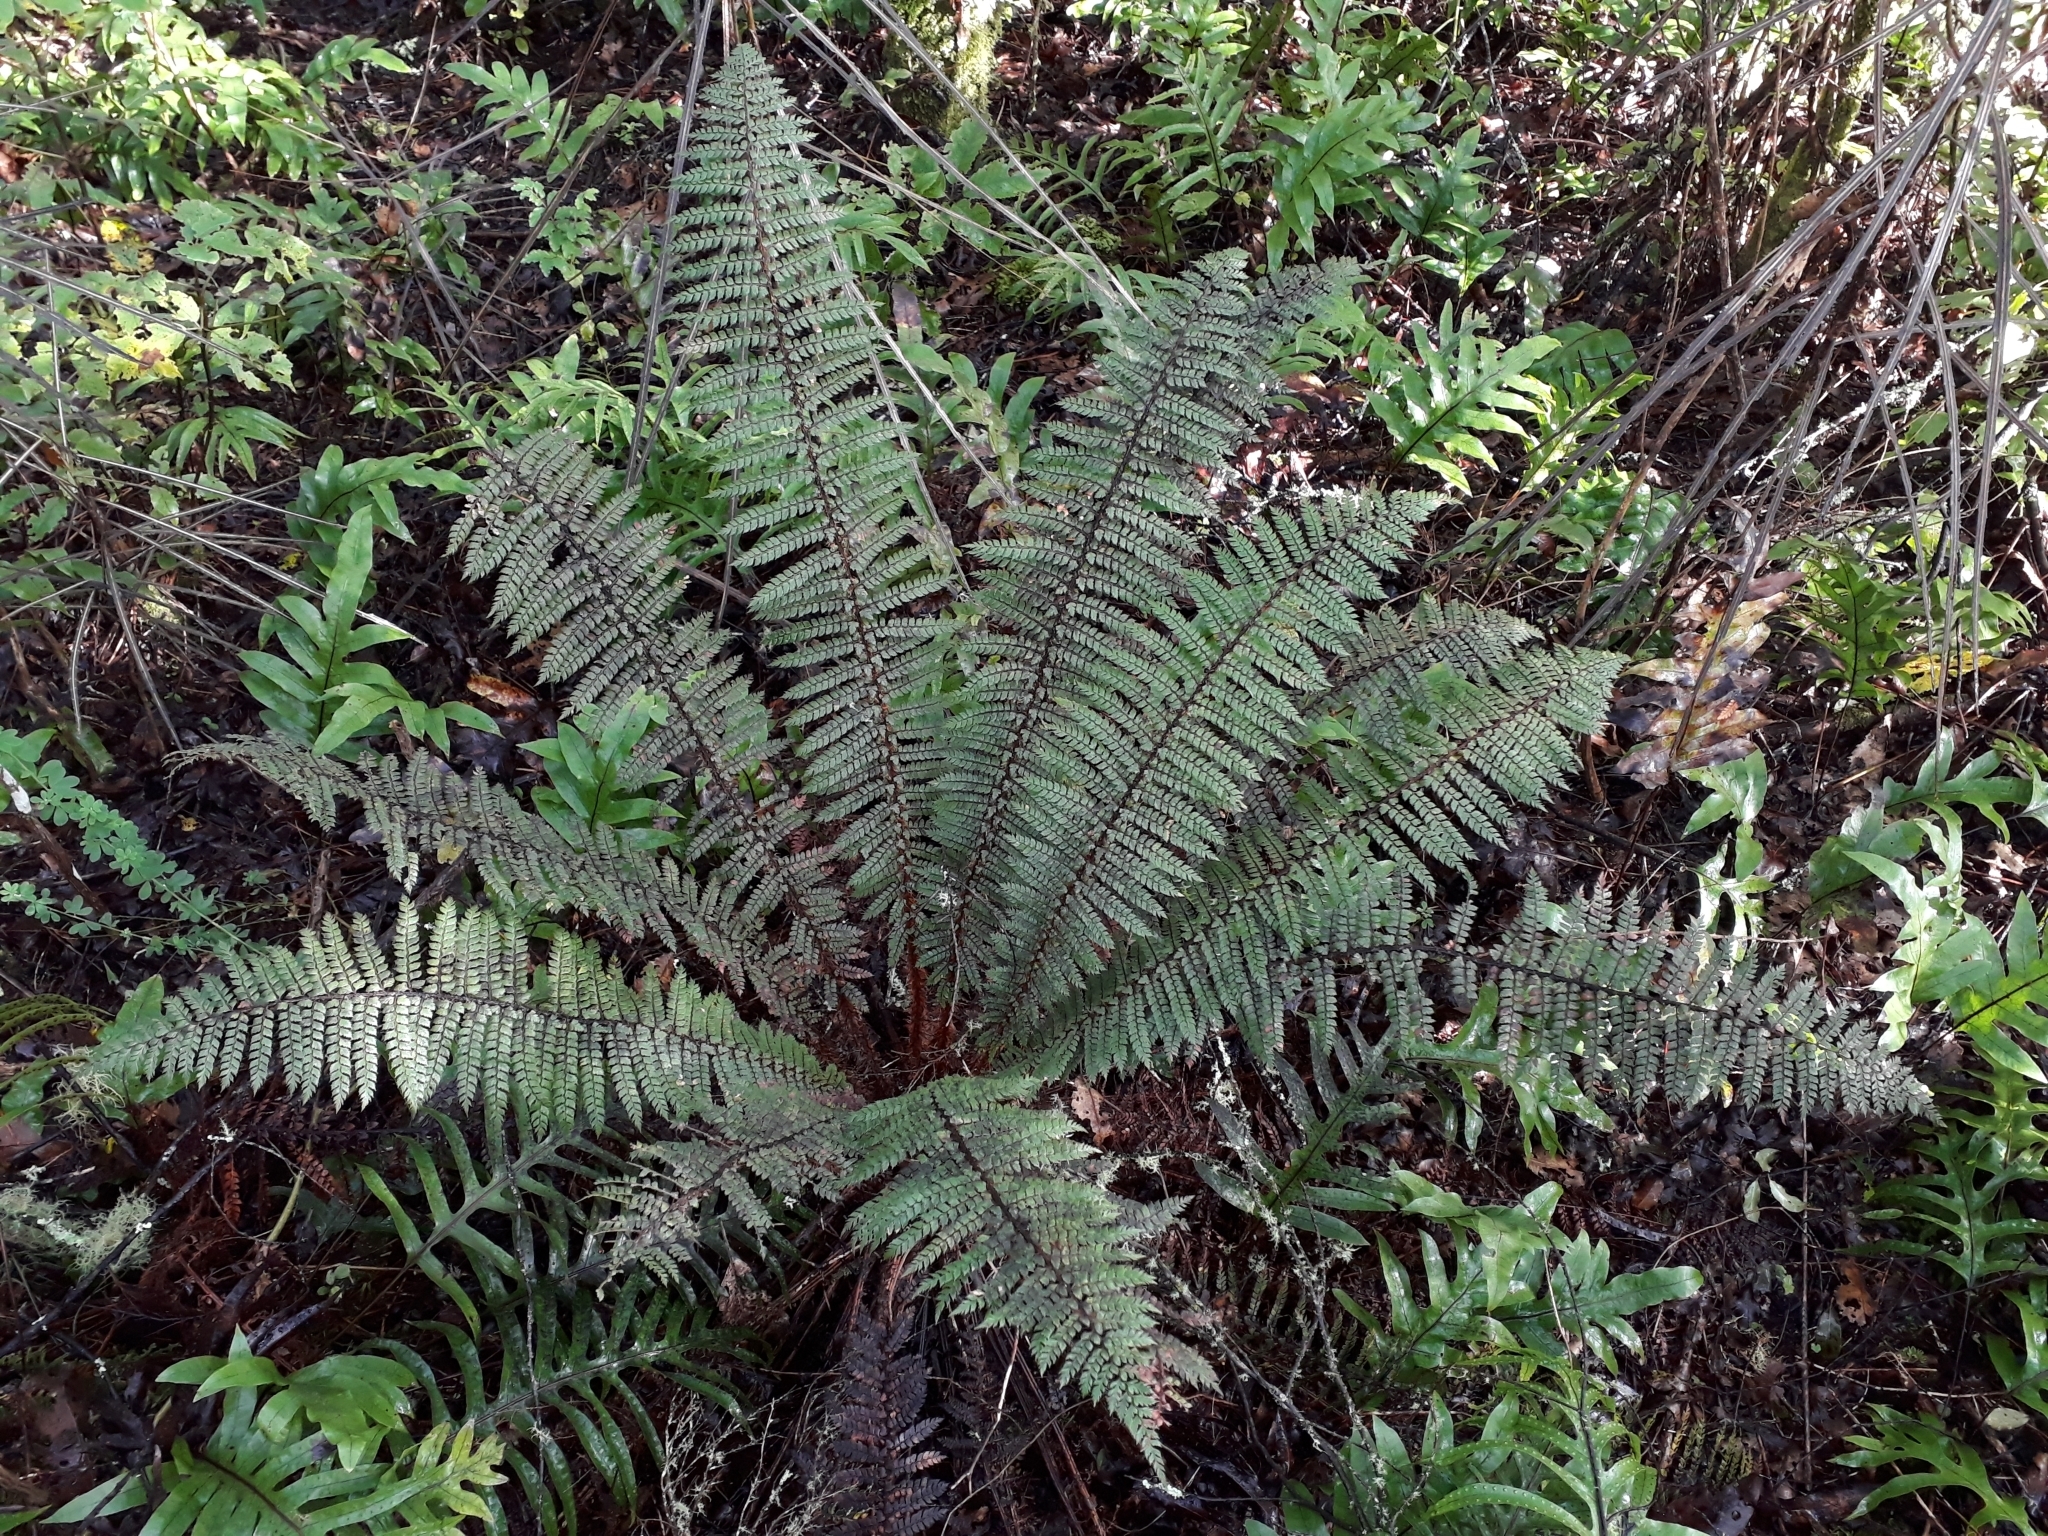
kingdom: Plantae
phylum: Tracheophyta
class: Polypodiopsida
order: Polypodiales
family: Dryopteridaceae
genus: Polystichum
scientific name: Polystichum vestitum
